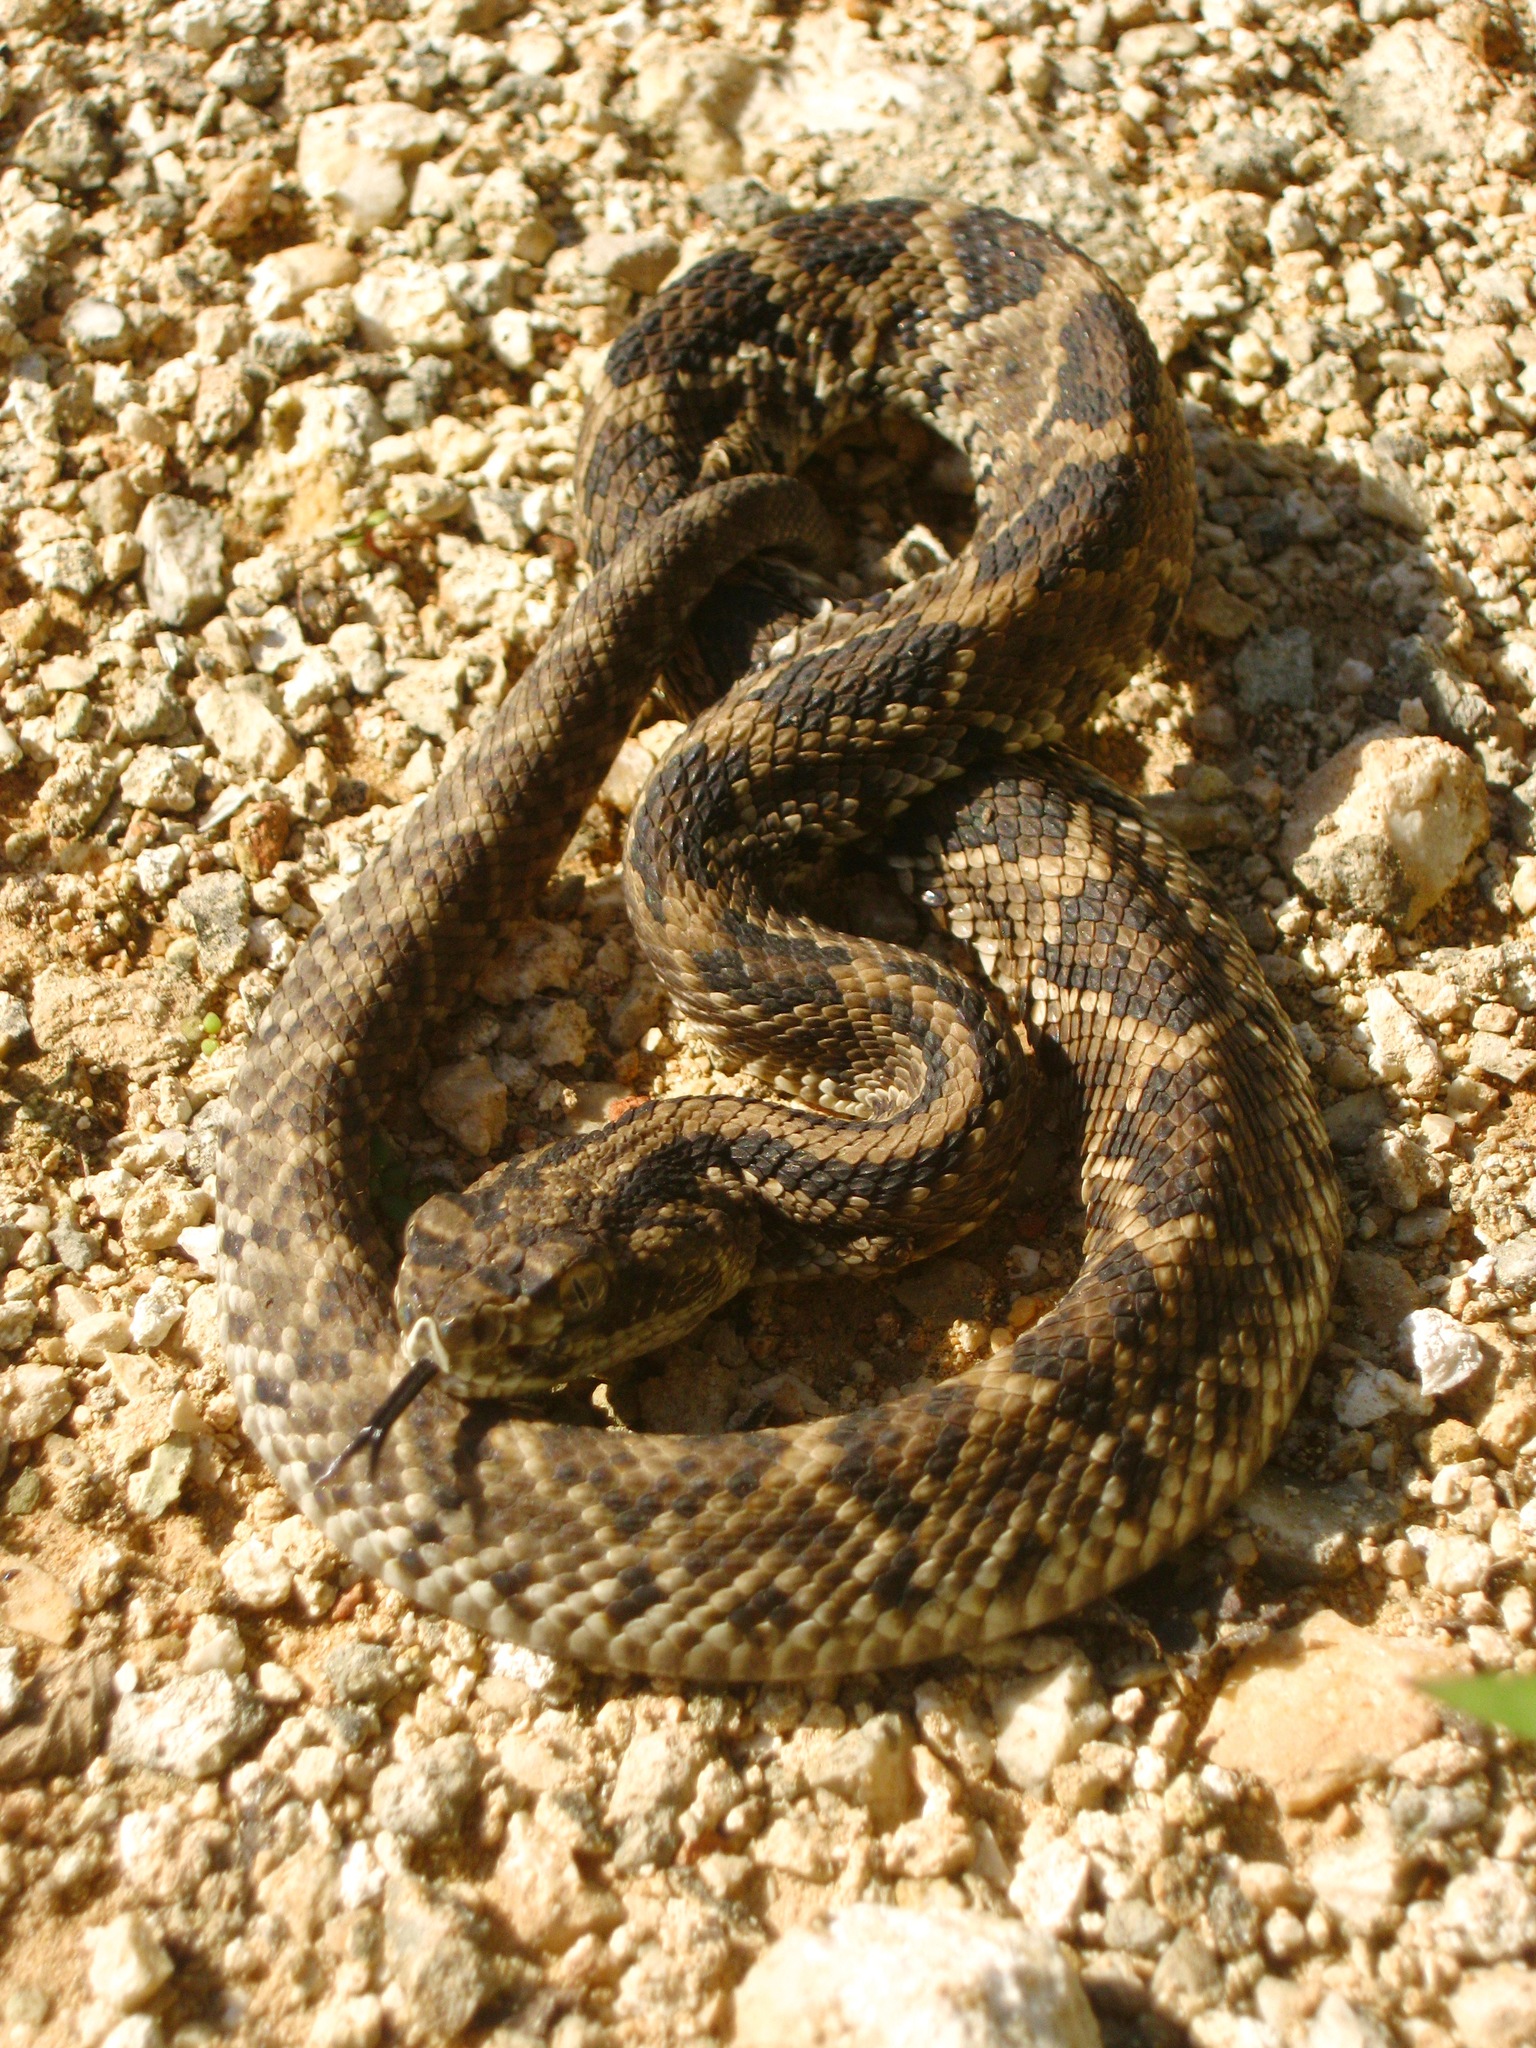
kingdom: Animalia
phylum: Chordata
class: Squamata
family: Viperidae
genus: Crotalus
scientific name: Crotalus tzabcan
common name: Yucatan neotropical rattlesnake
